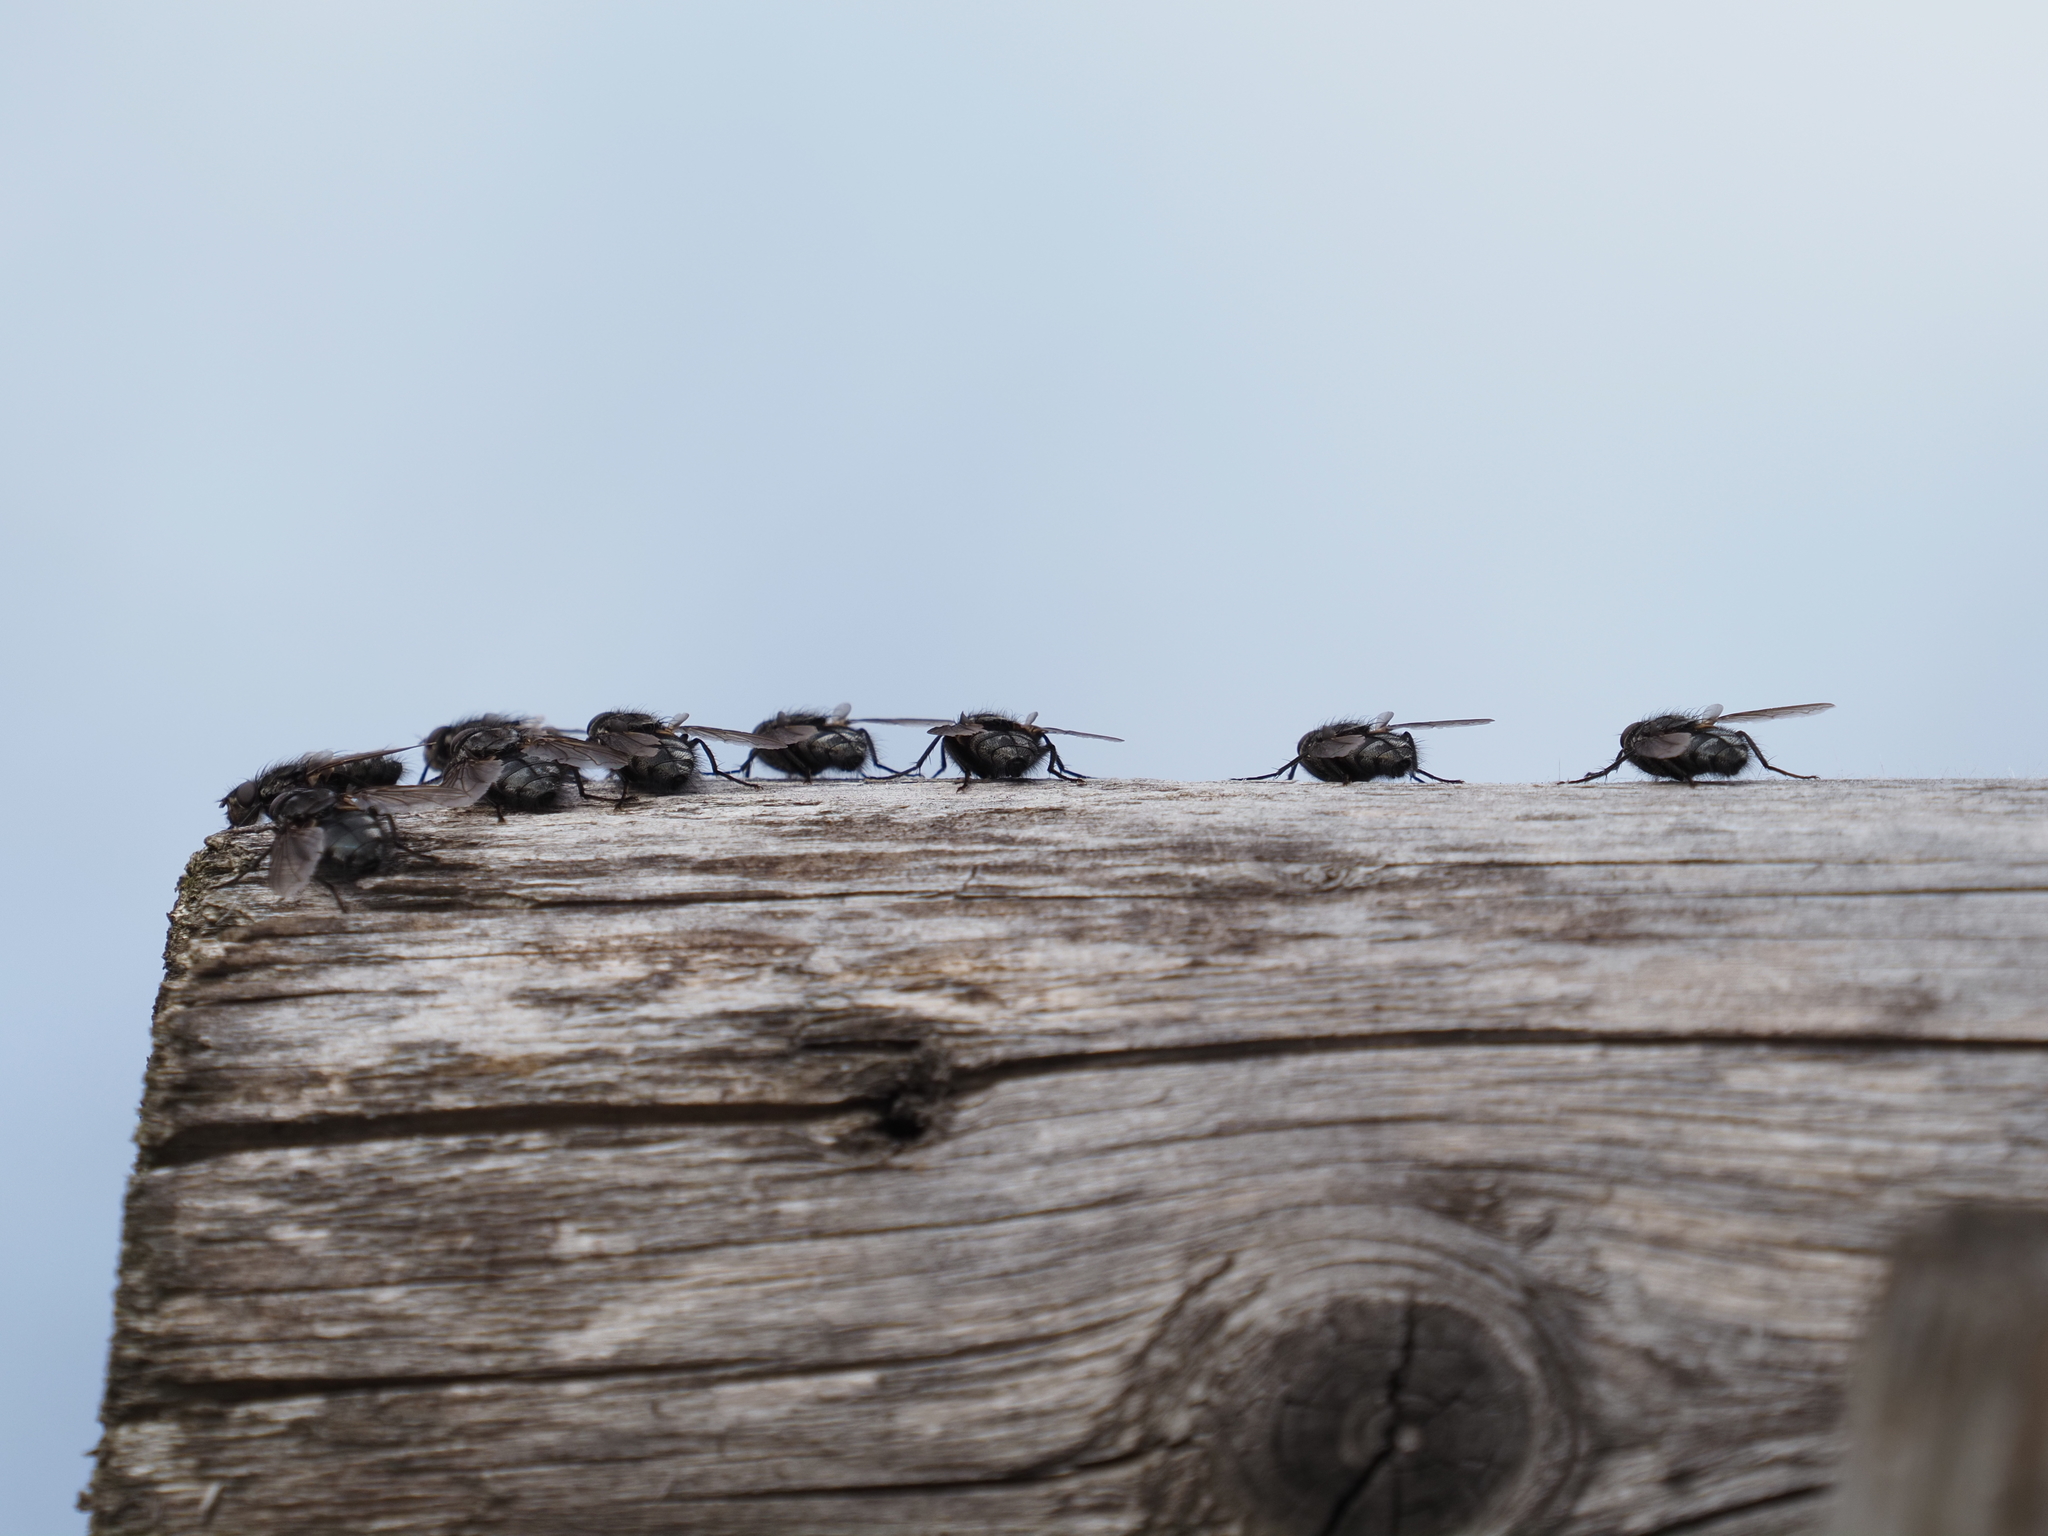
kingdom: Animalia
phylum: Arthropoda
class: Insecta
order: Diptera
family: Polleniidae
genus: Pollenia
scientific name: Pollenia vagabunda
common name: Vagabund cluster fly
